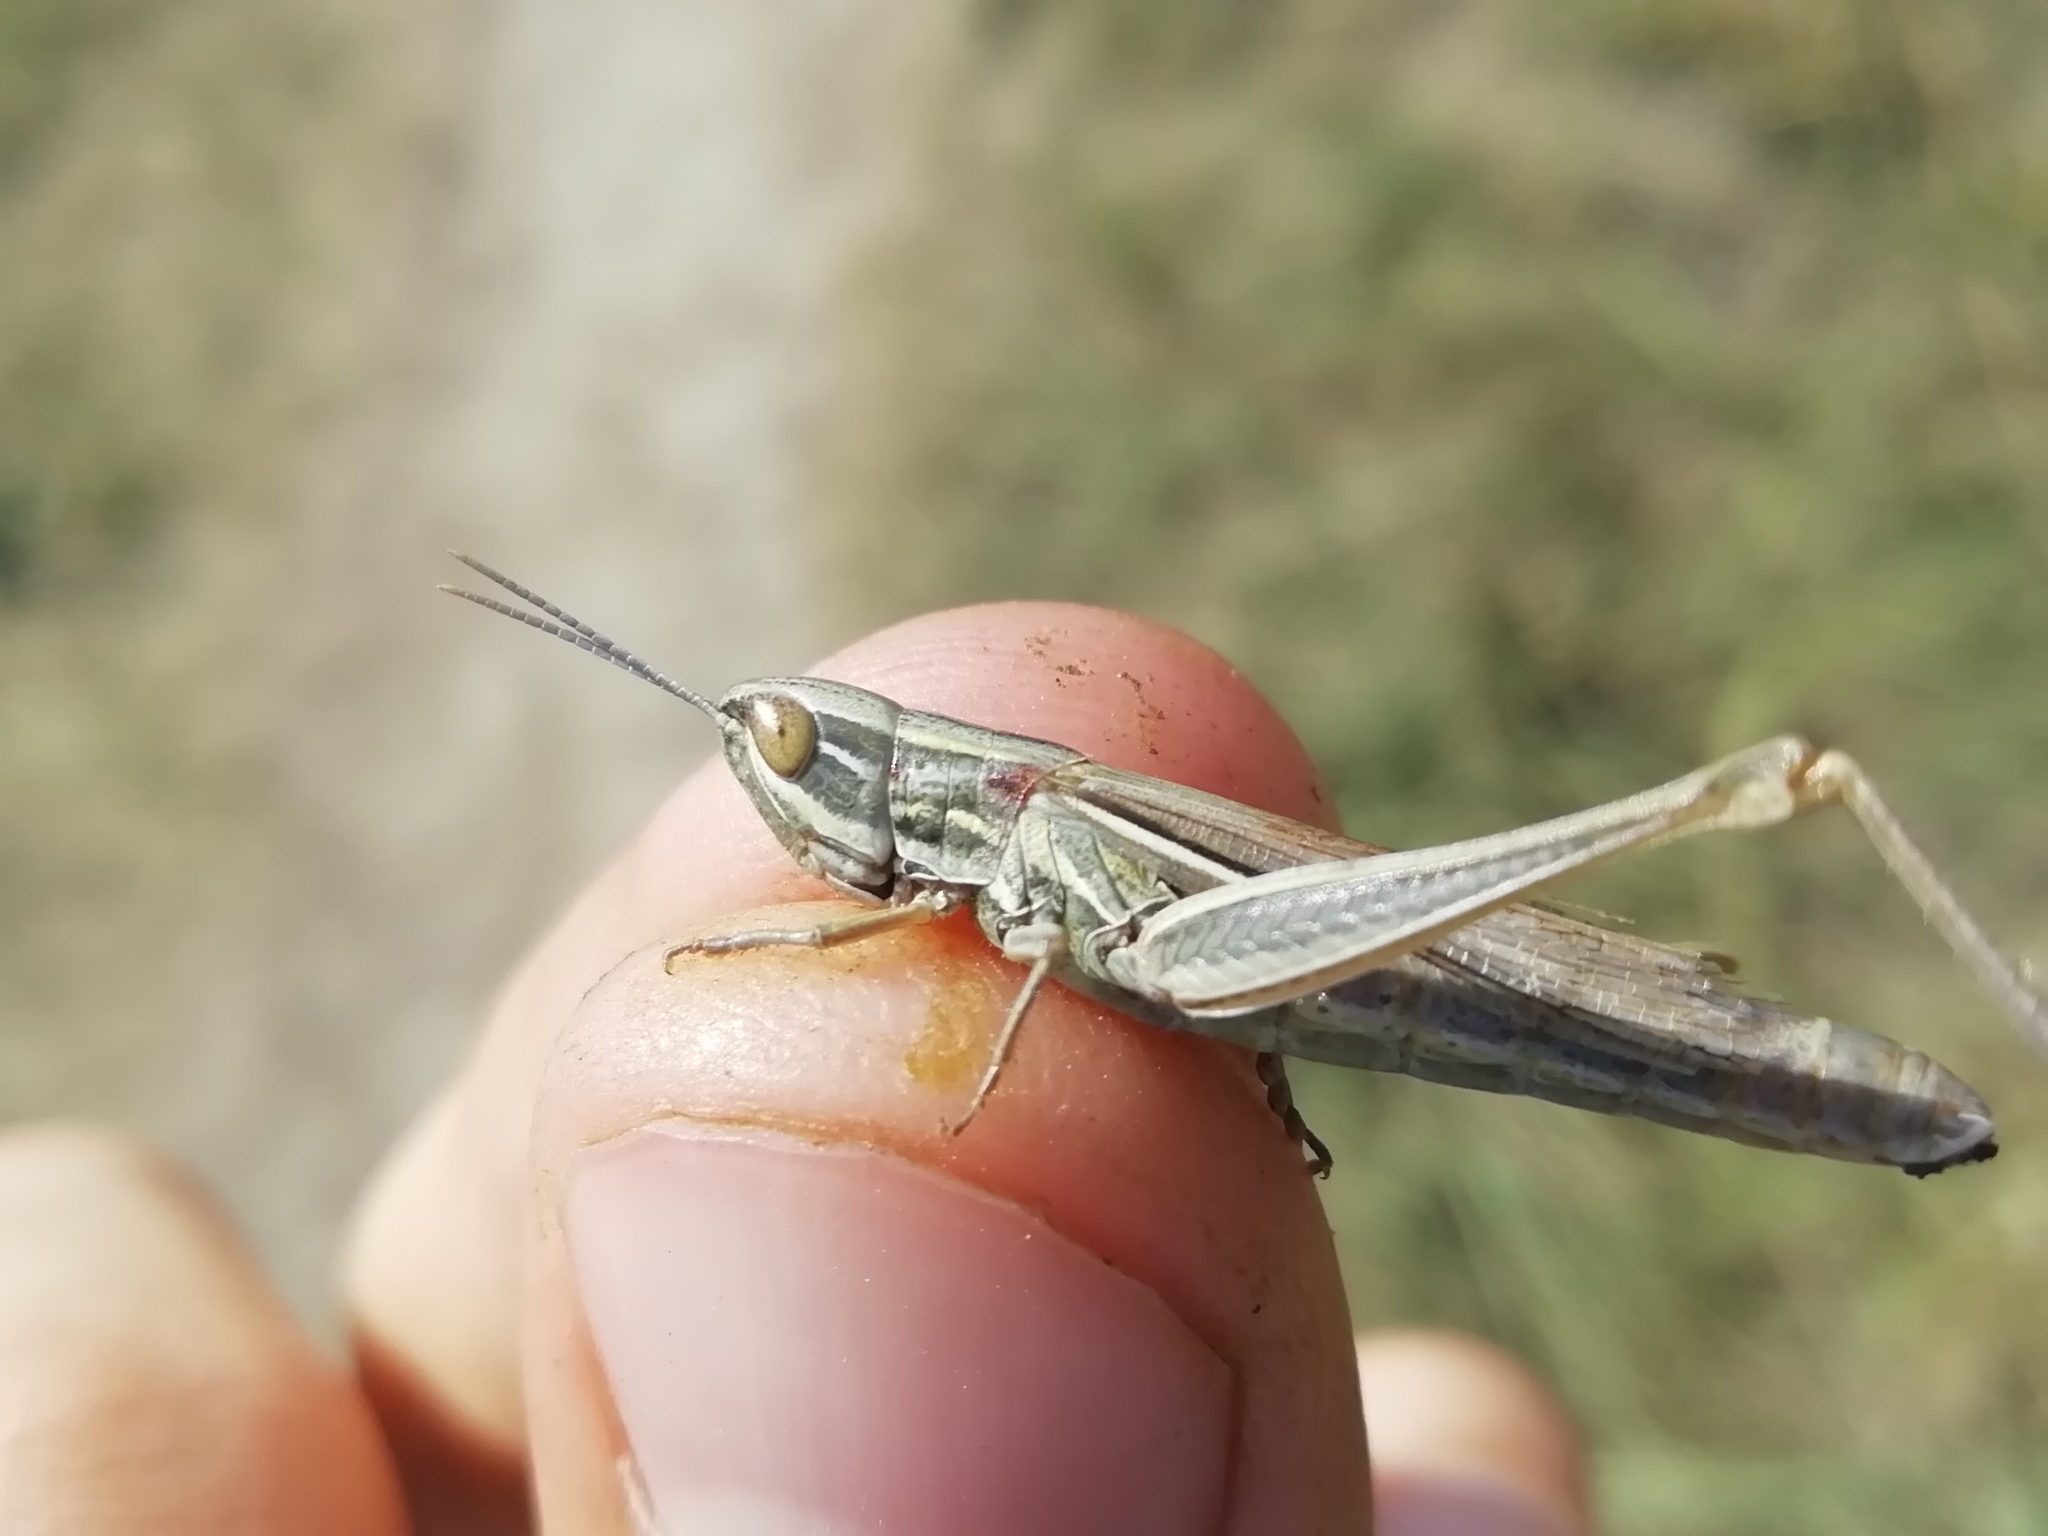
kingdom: Animalia
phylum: Arthropoda
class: Insecta
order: Orthoptera
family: Acrididae
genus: Euchorthippus
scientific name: Euchorthippus pulvinatus
